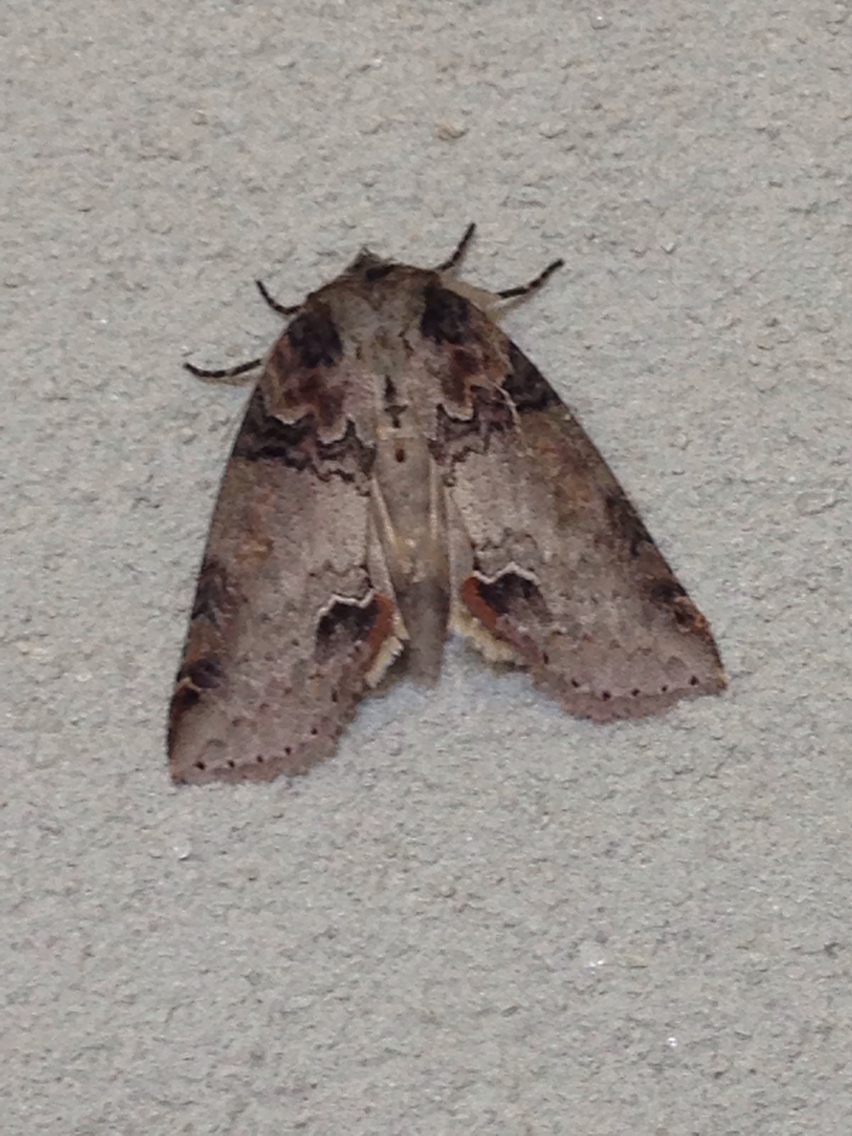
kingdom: Animalia
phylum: Arthropoda
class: Insecta
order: Lepidoptera
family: Drepanidae
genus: Pseudothyatira
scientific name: Pseudothyatira cymatophoroides
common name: Tufted thyatirid moth
